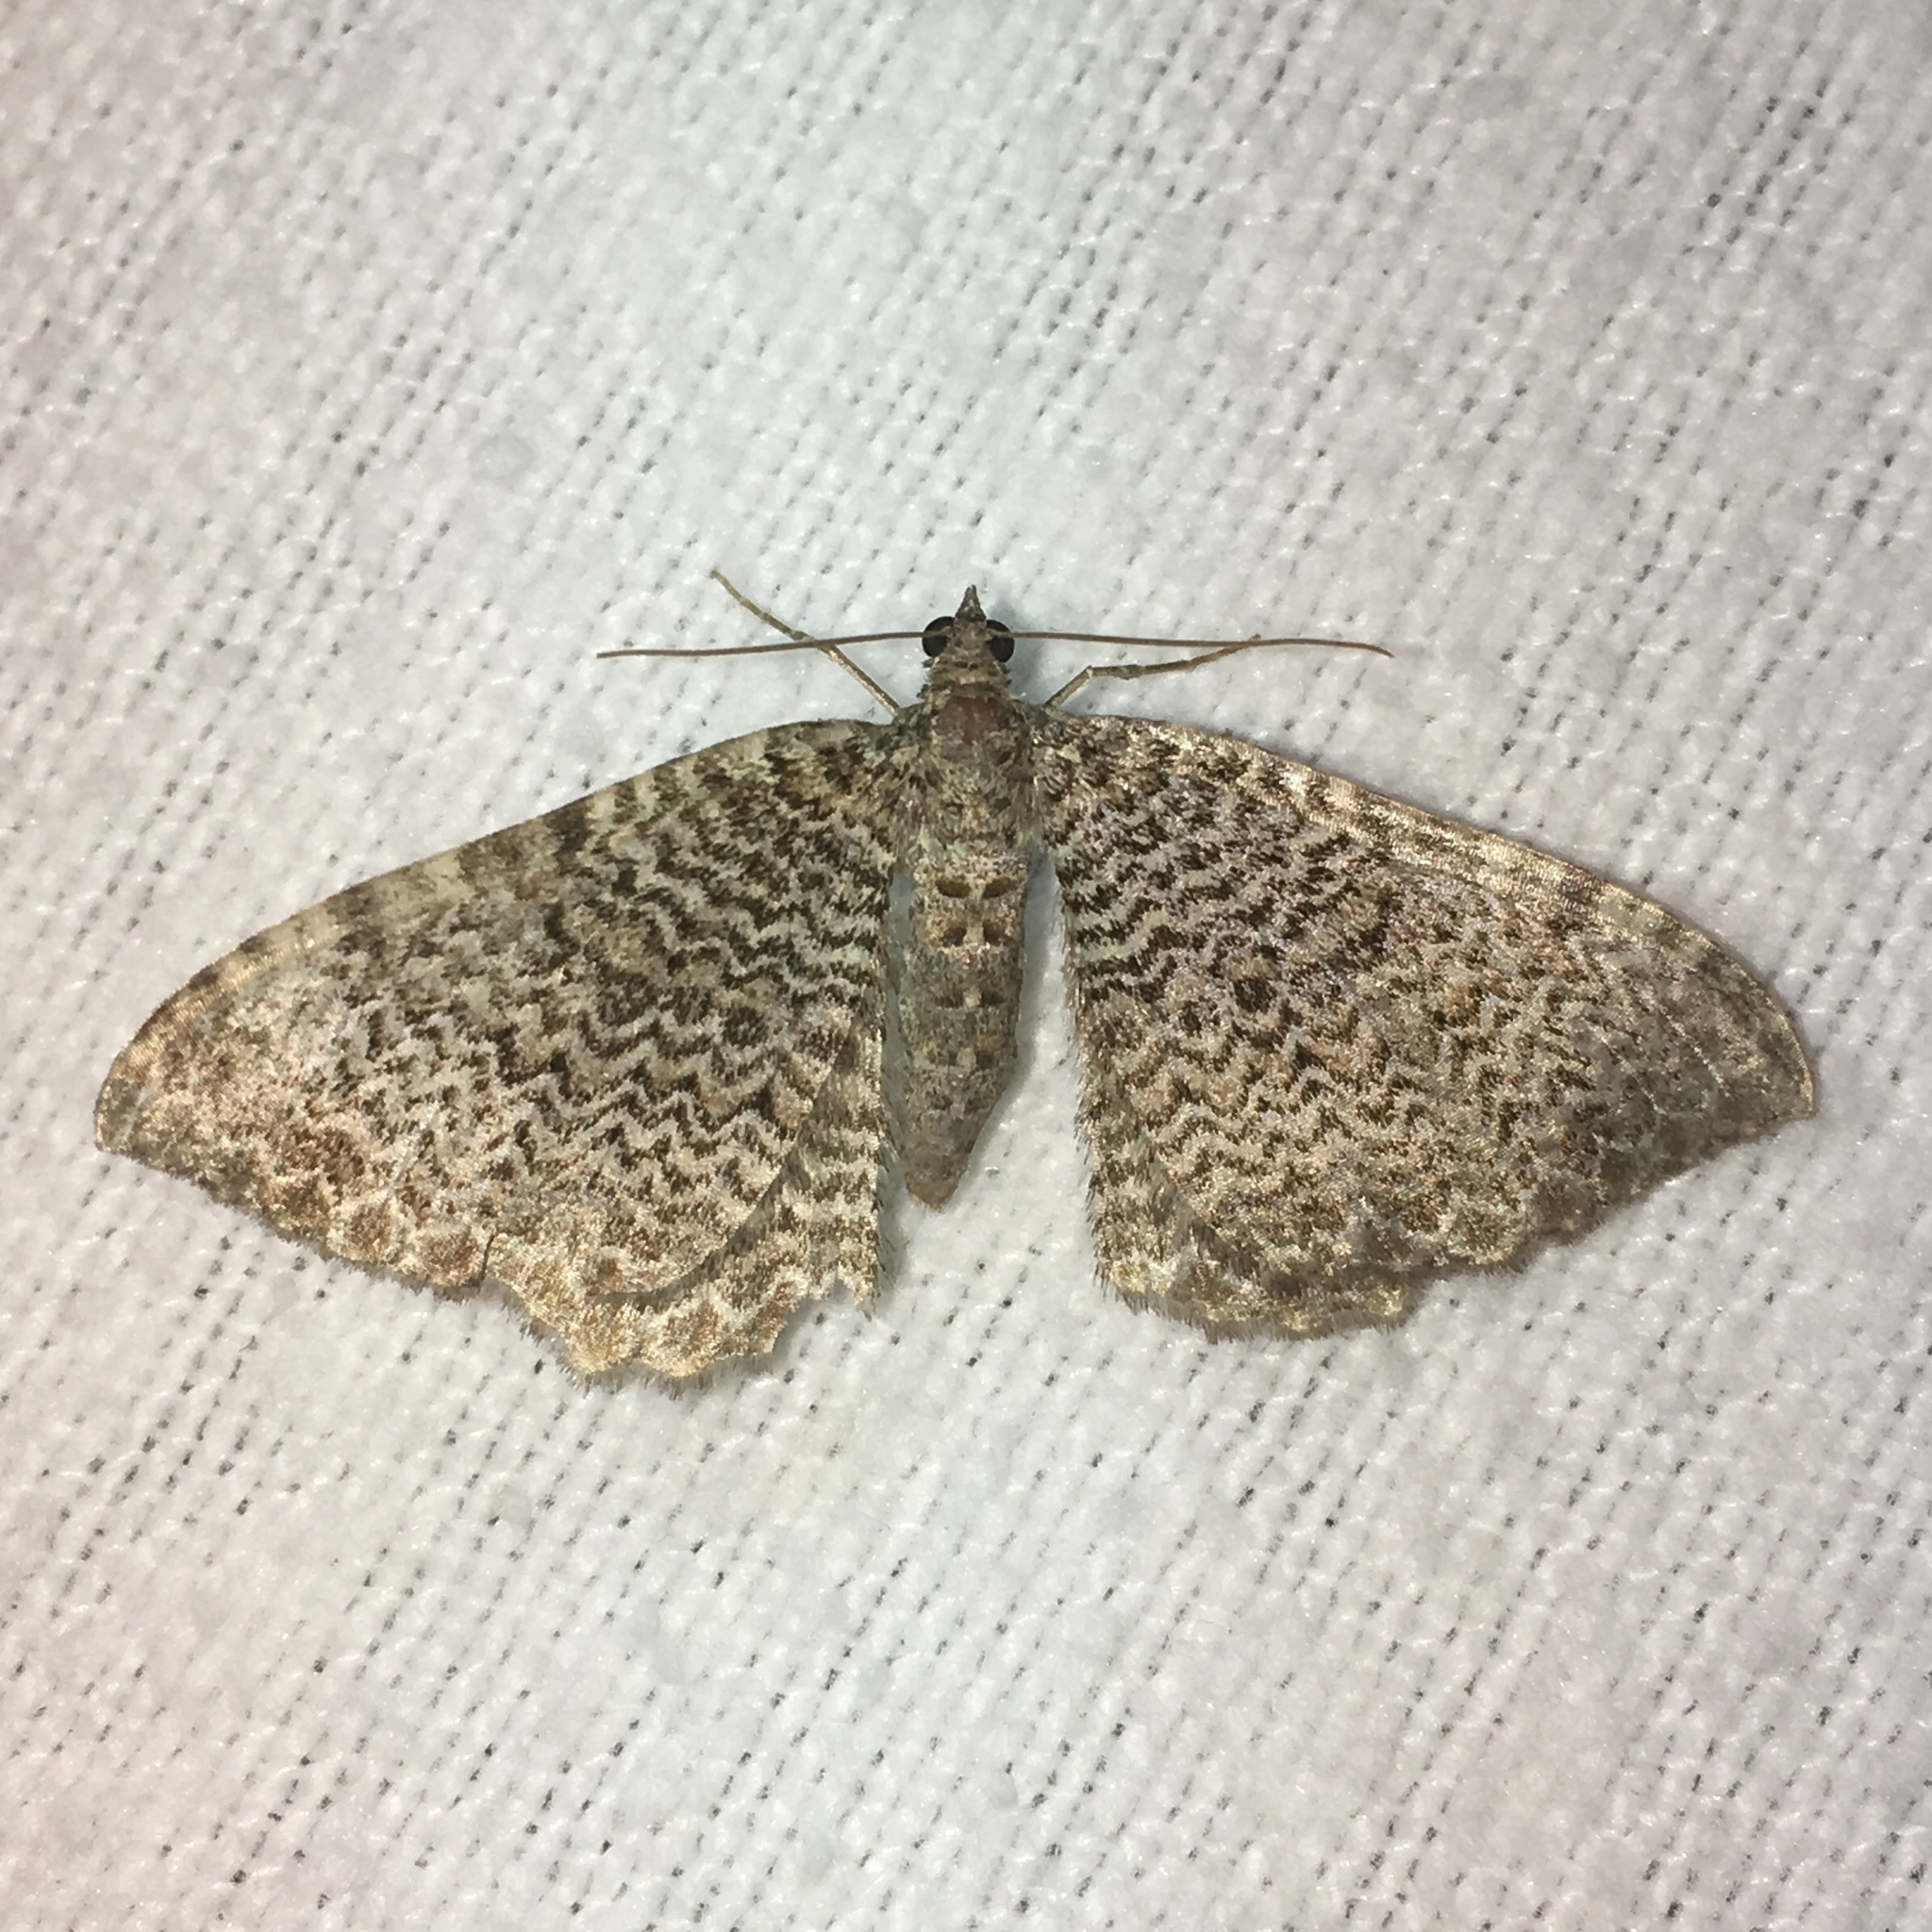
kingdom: Animalia
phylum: Arthropoda
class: Insecta
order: Lepidoptera
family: Geometridae
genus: Rheumaptera
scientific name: Rheumaptera prunivorata
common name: Cherry scallop shell moth
